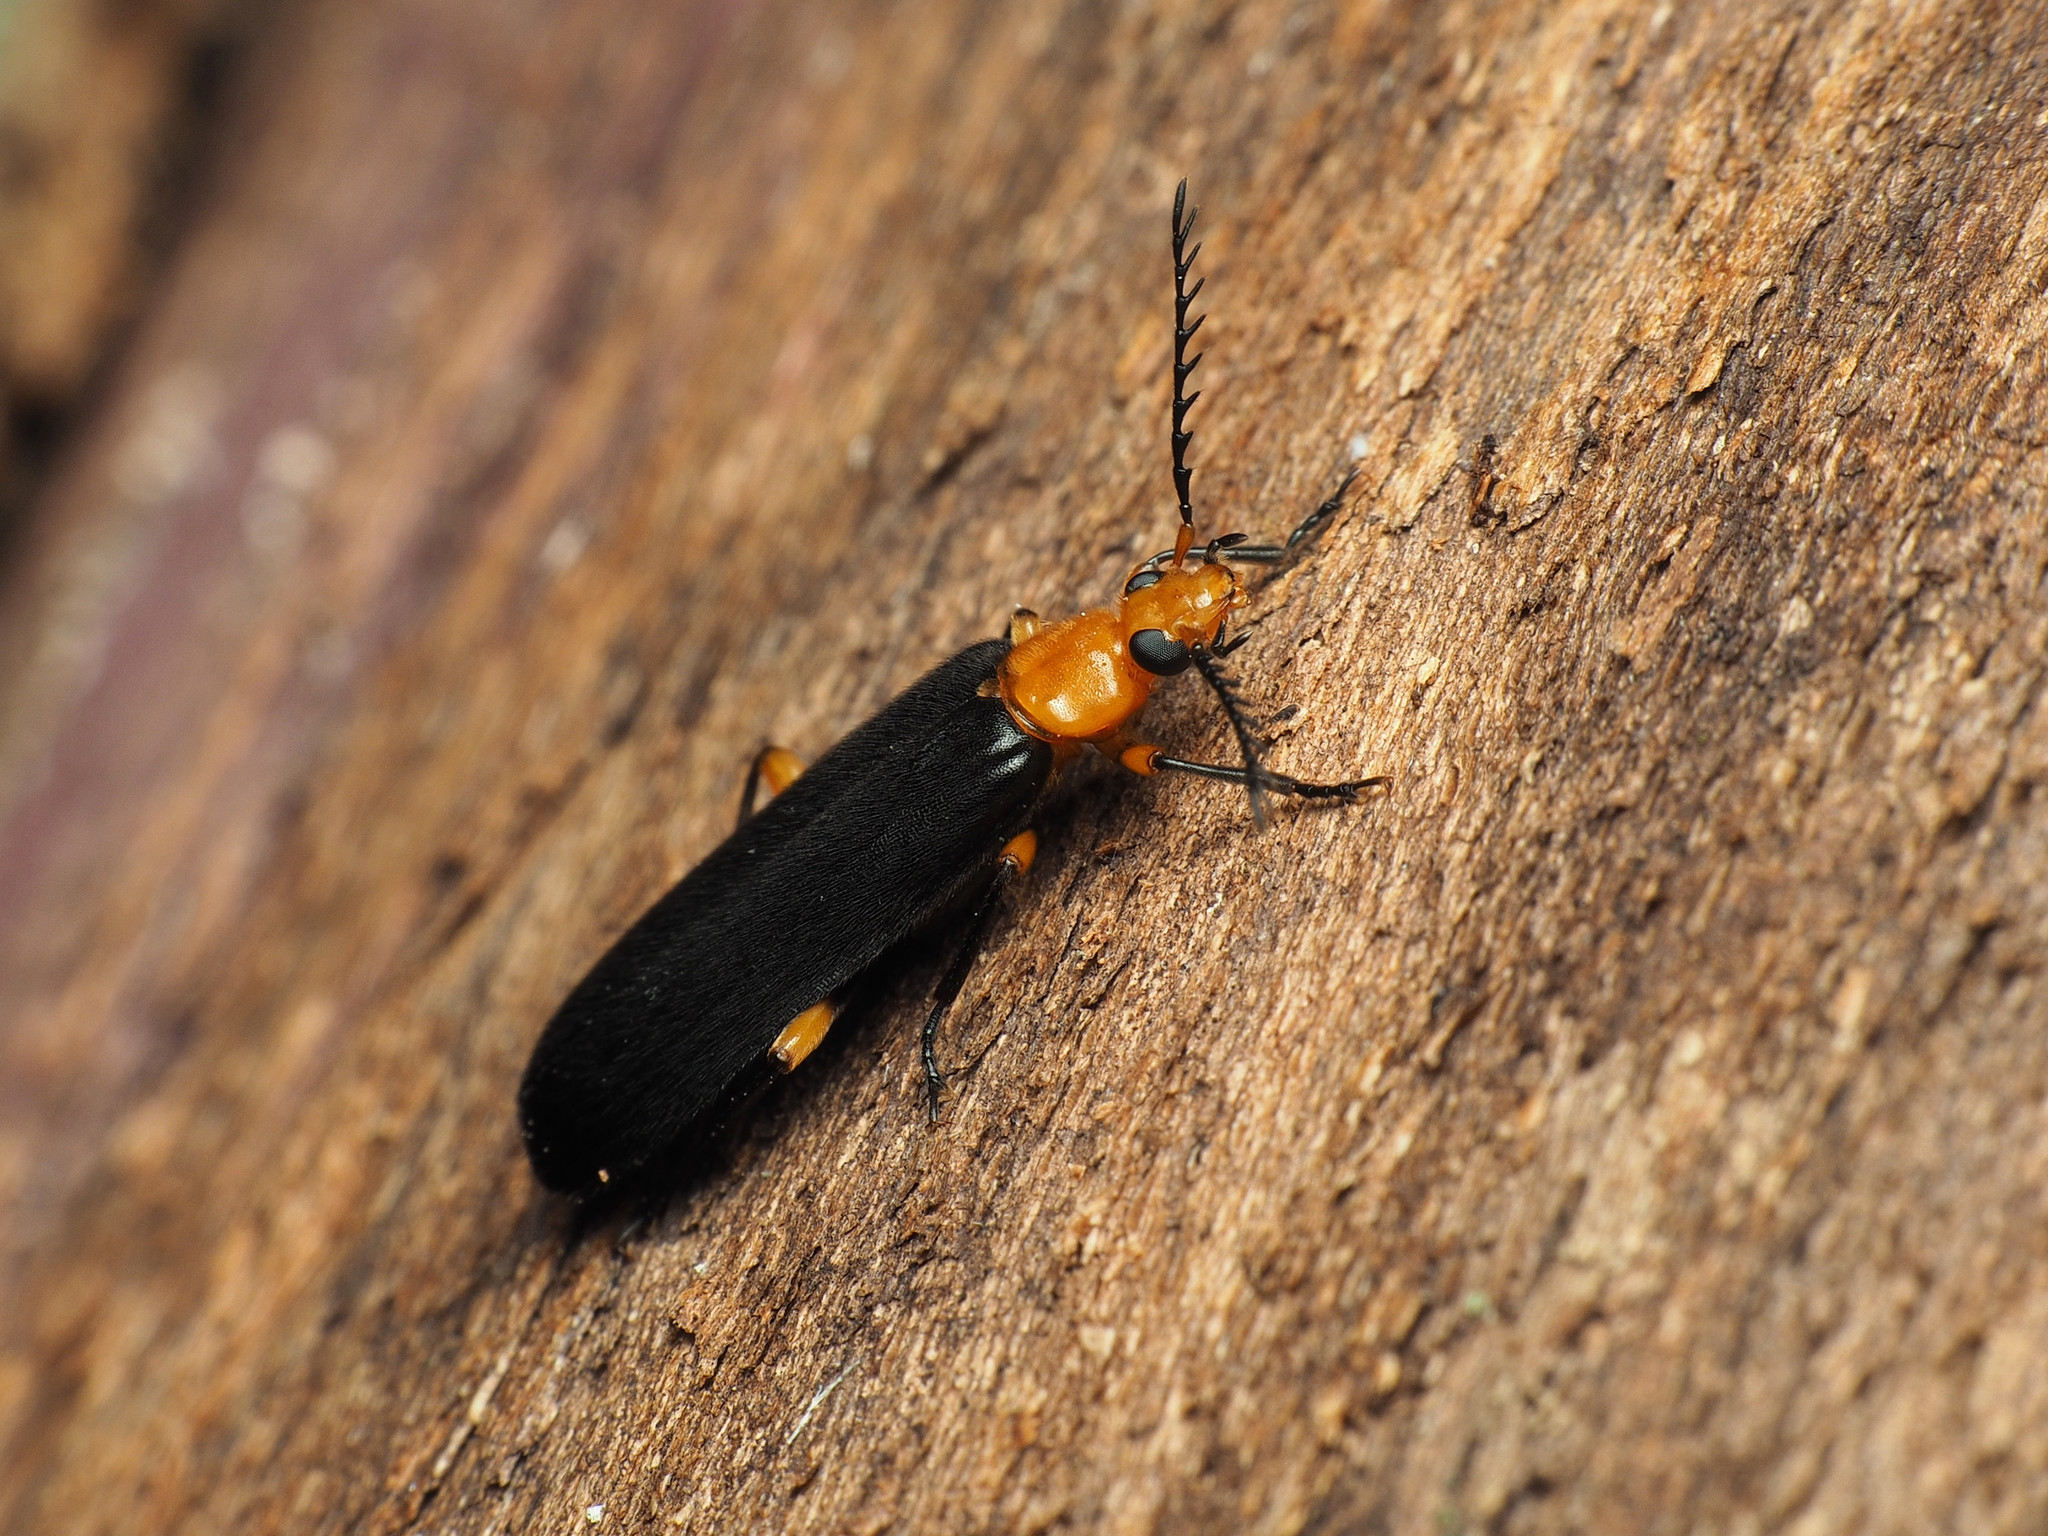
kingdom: Animalia
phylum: Arthropoda
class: Insecta
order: Coleoptera
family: Pyrochroidae
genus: Neopyrochroa
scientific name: Neopyrochroa femoralis
